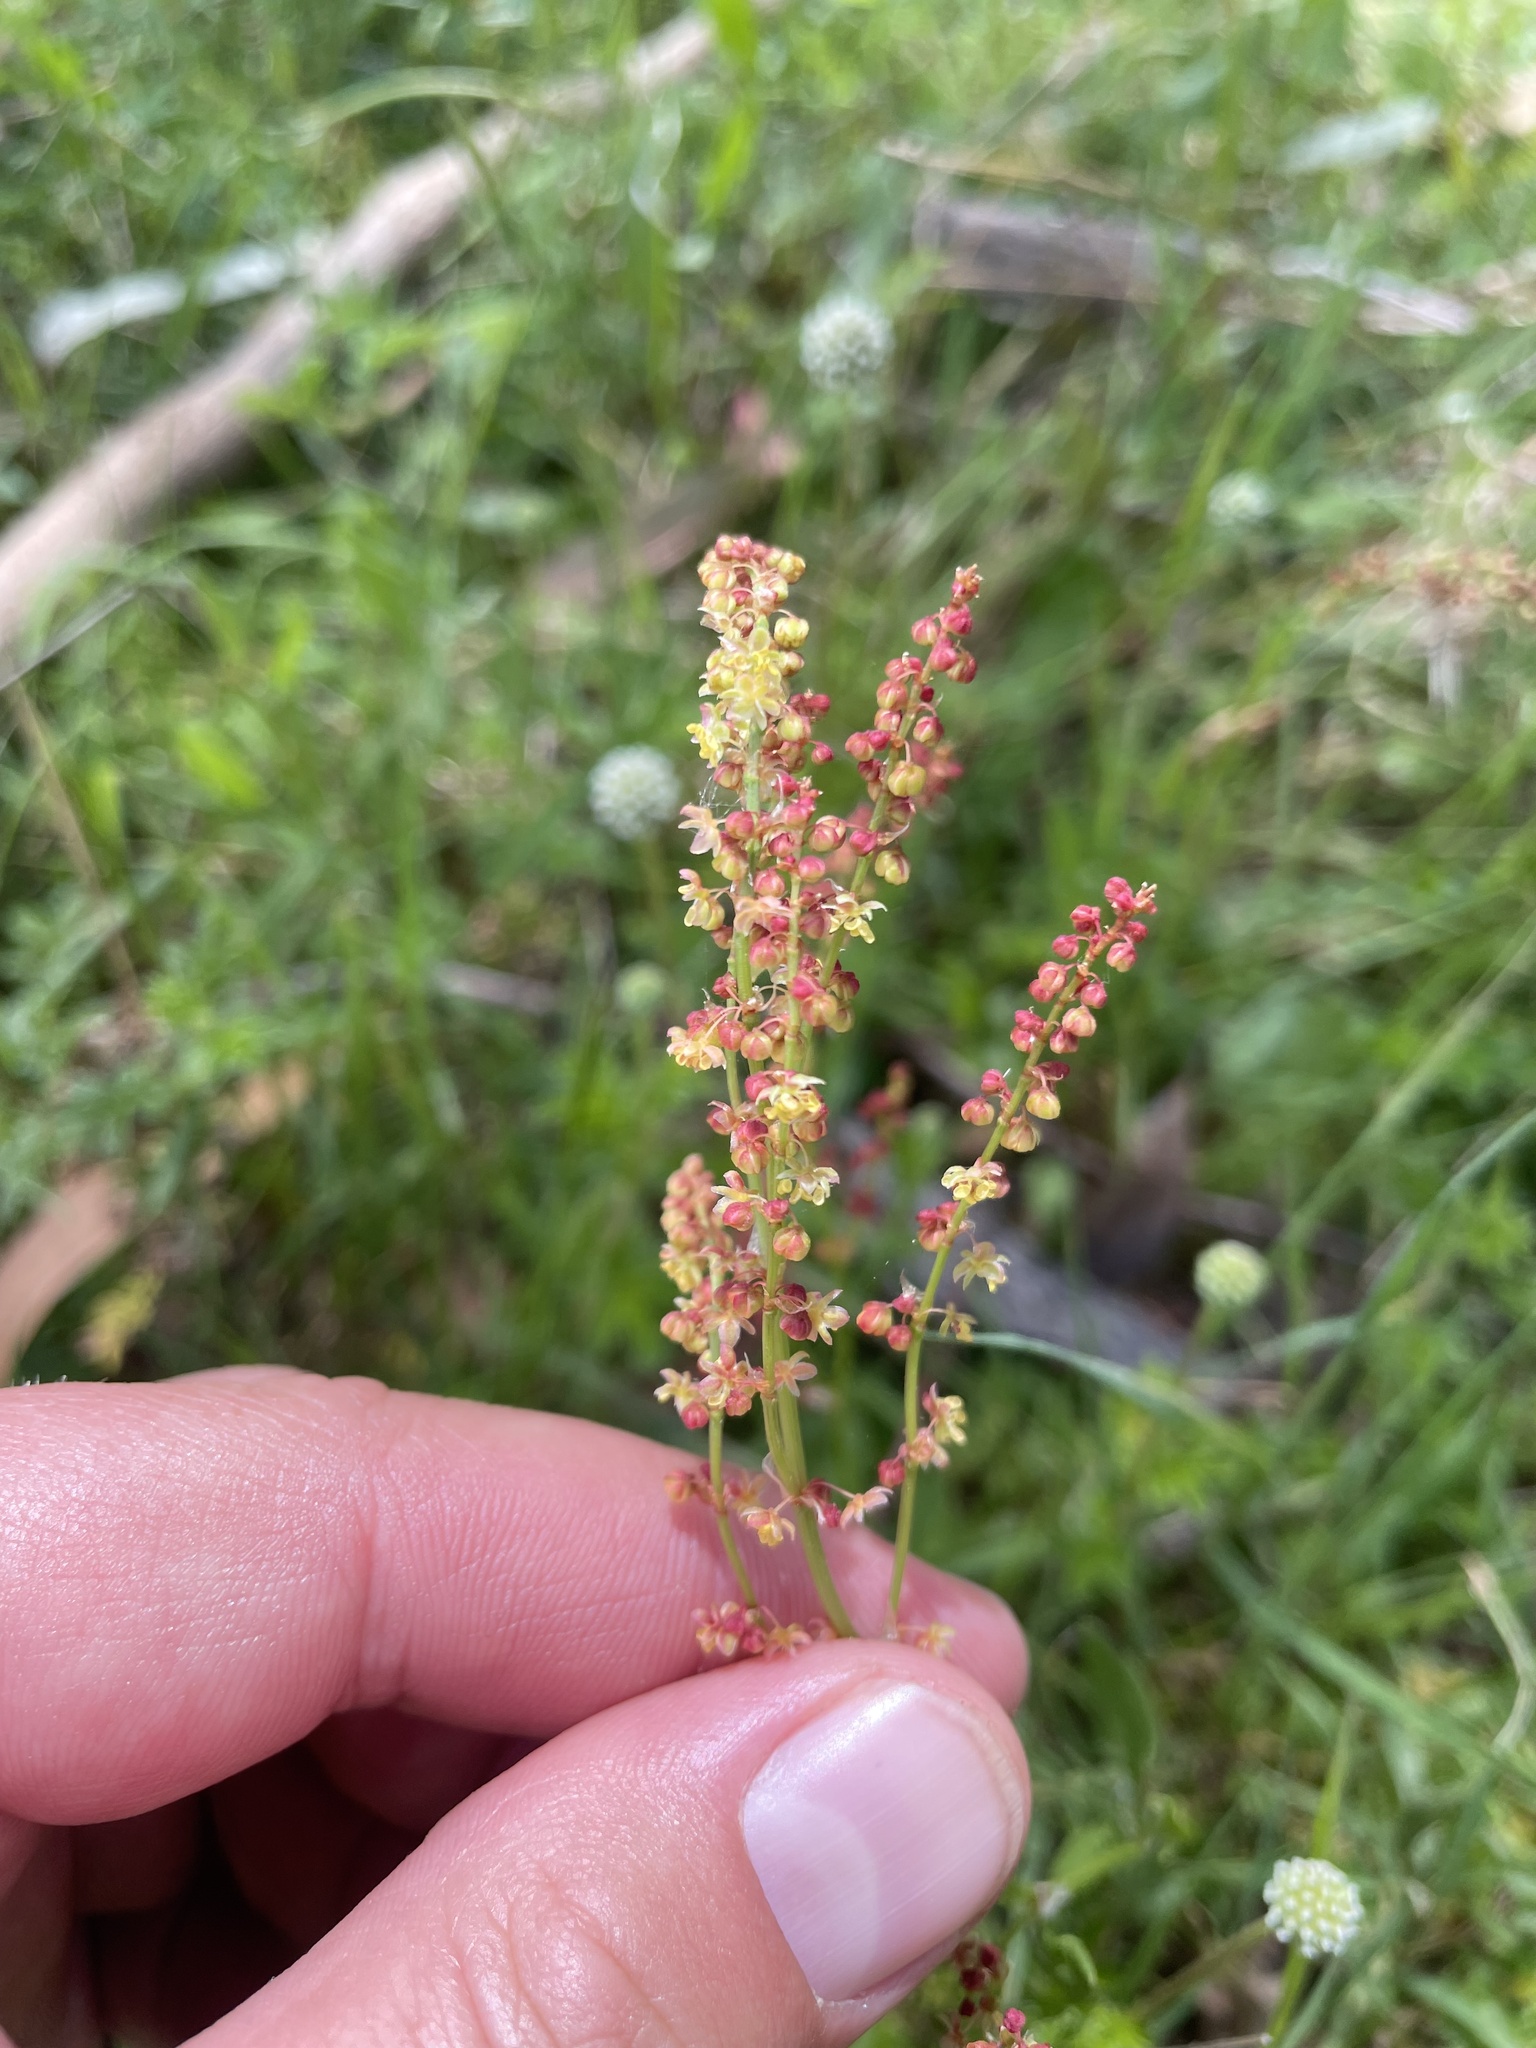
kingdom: Plantae
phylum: Tracheophyta
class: Magnoliopsida
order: Caryophyllales
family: Polygonaceae
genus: Rumex
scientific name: Rumex acetosella
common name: Common sheep sorrel
